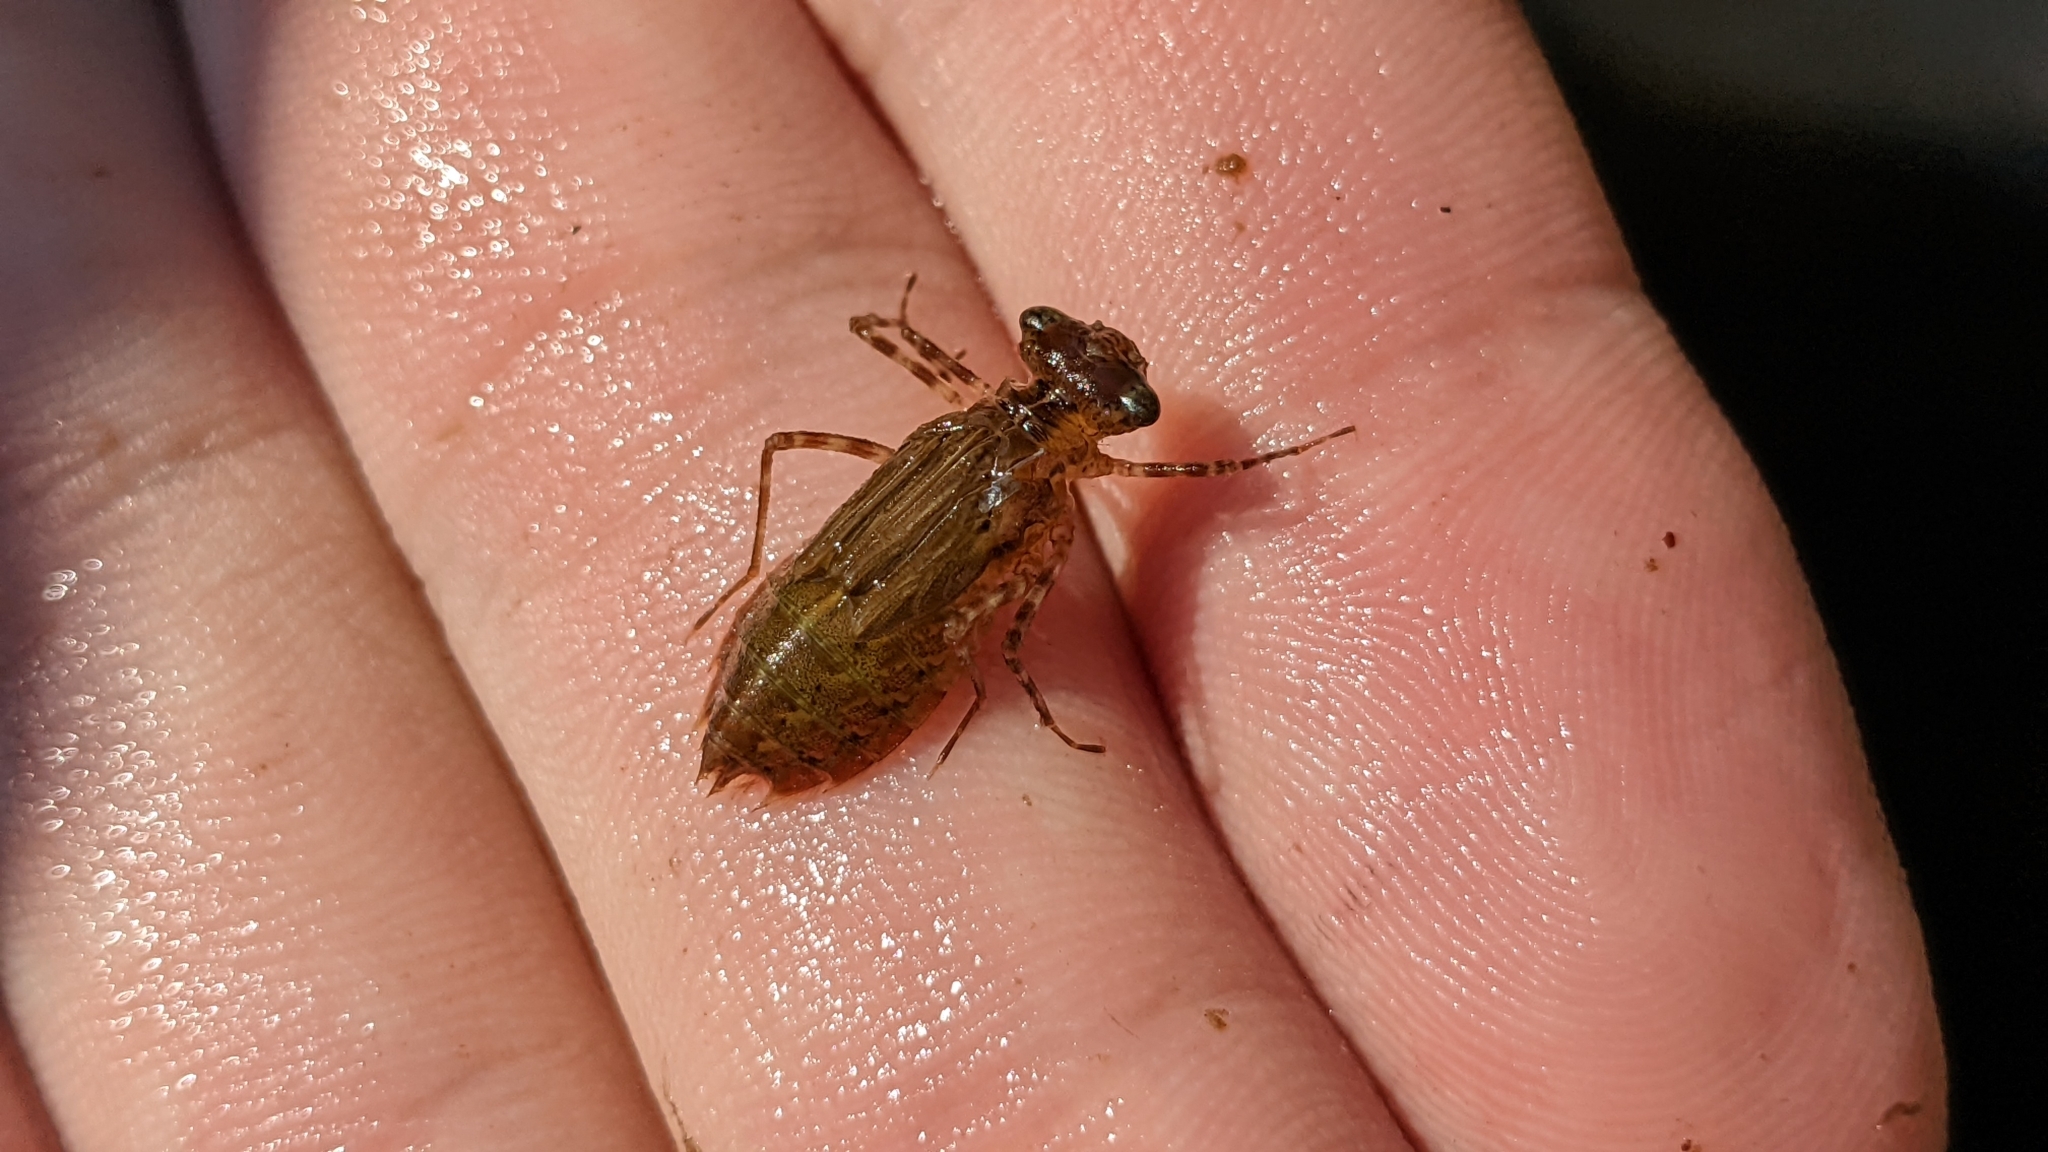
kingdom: Animalia
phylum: Arthropoda
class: Insecta
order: Odonata
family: Libellulidae
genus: Pachydiplax
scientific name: Pachydiplax longipennis
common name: Blue dasher
